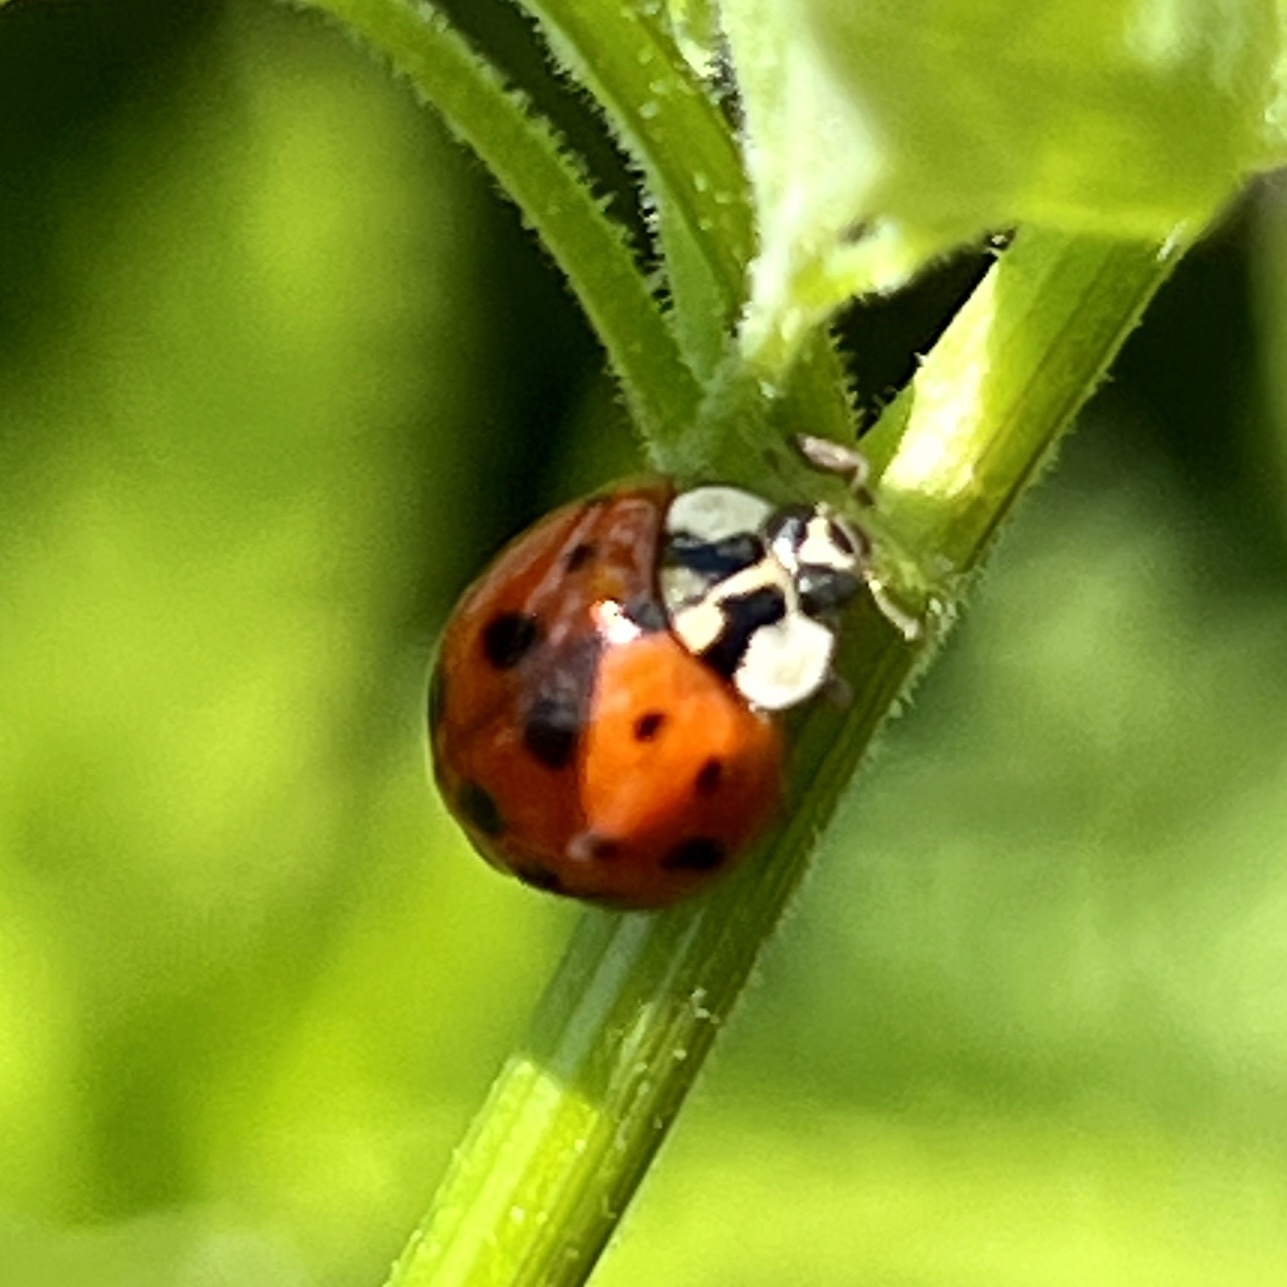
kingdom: Animalia
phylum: Arthropoda
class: Insecta
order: Coleoptera
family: Coccinellidae
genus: Harmonia
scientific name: Harmonia axyridis
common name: Harlequin ladybird
